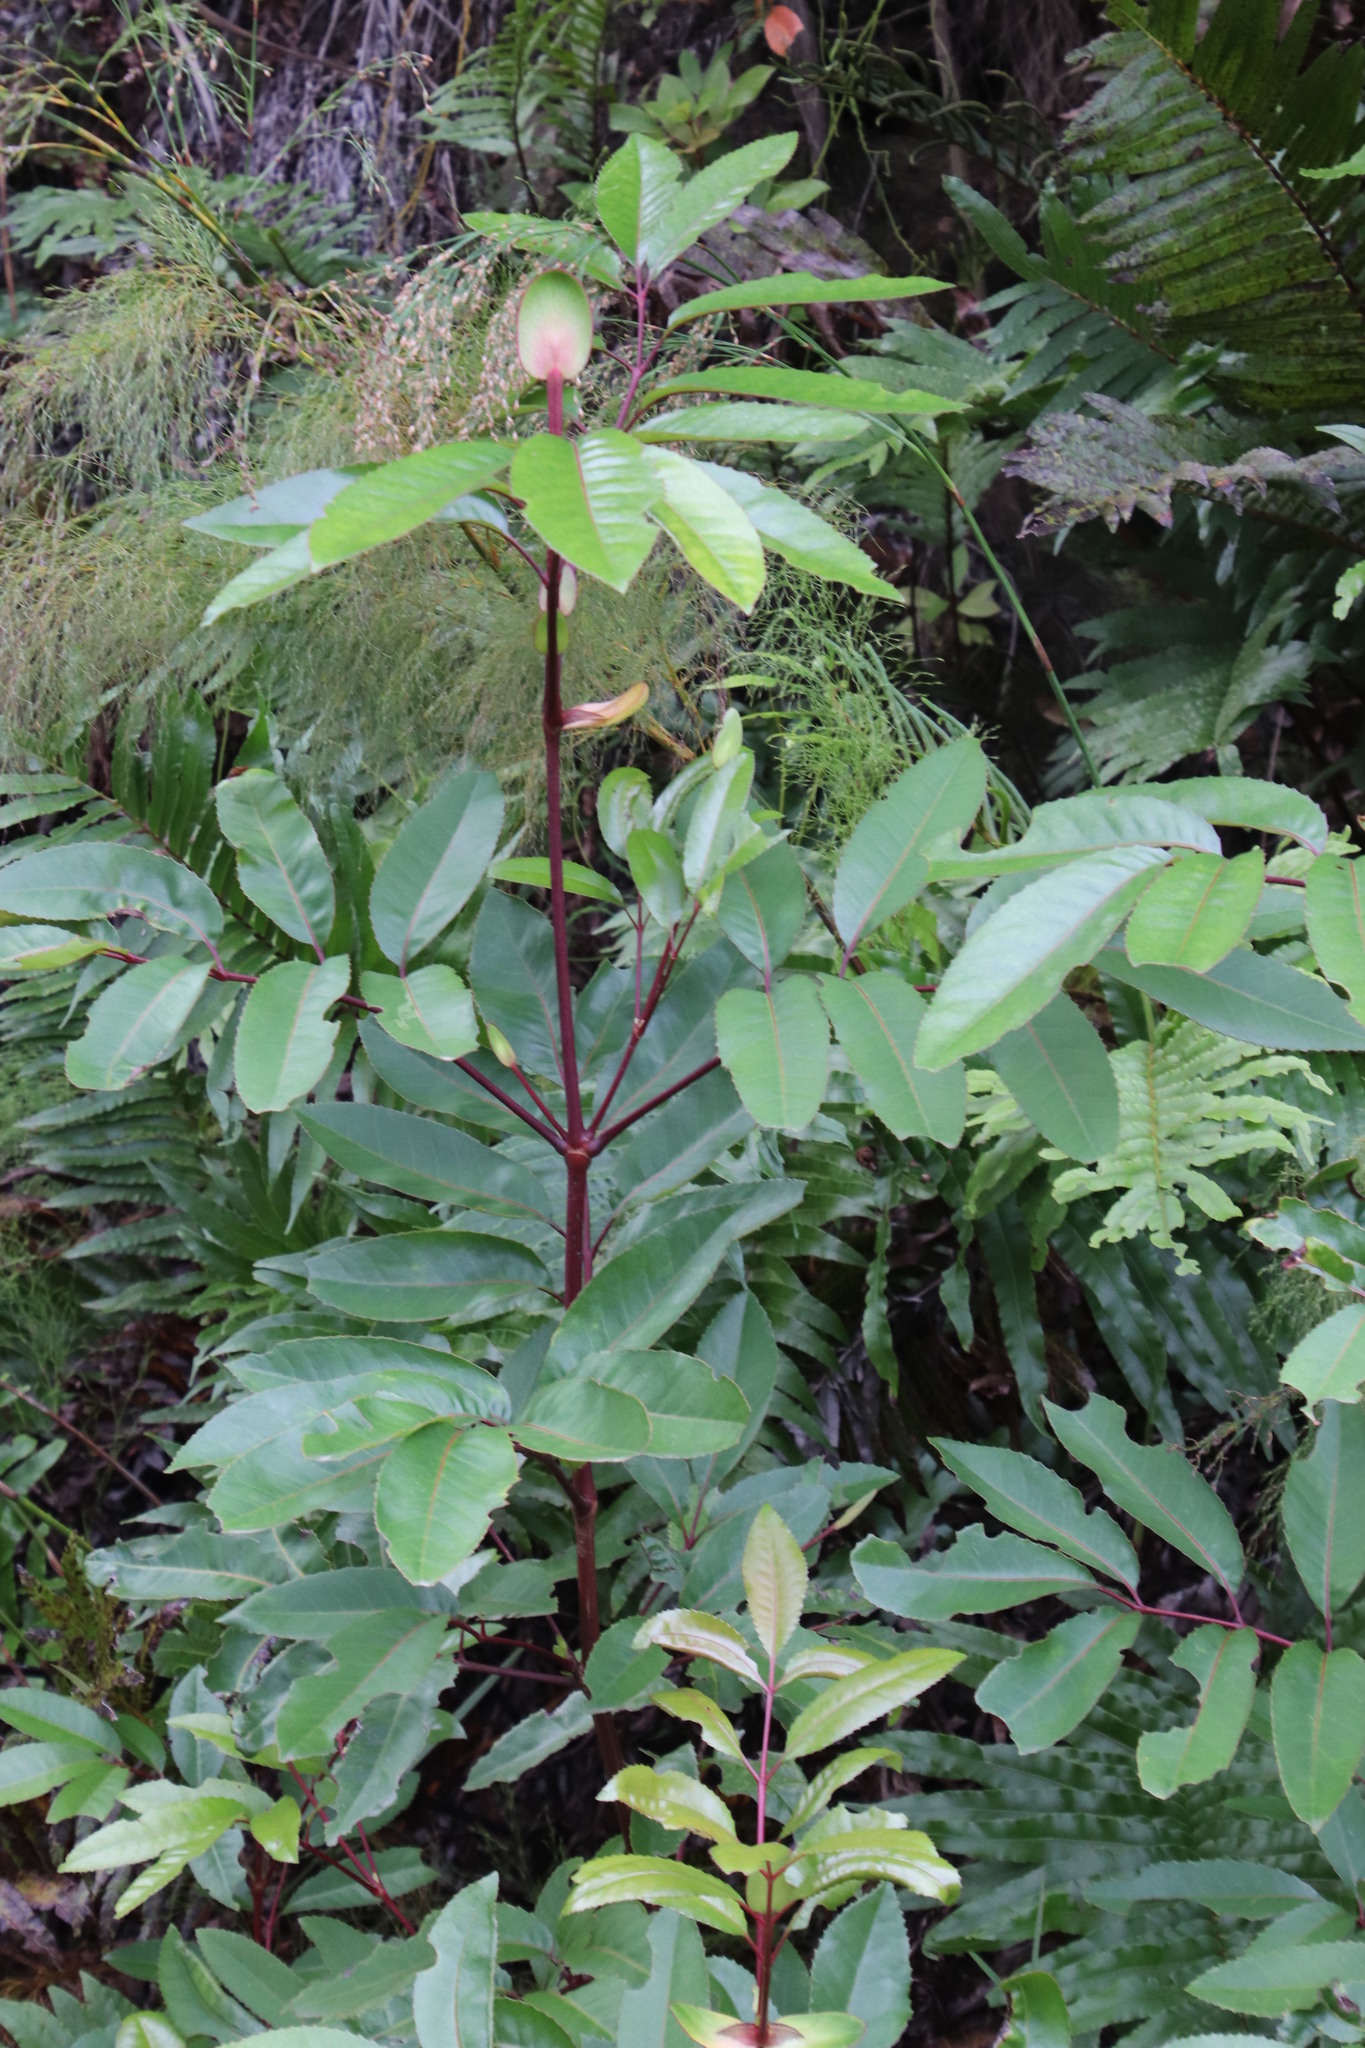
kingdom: Plantae
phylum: Tracheophyta
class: Magnoliopsida
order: Oxalidales
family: Cunoniaceae
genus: Cunonia
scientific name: Cunonia capensis
